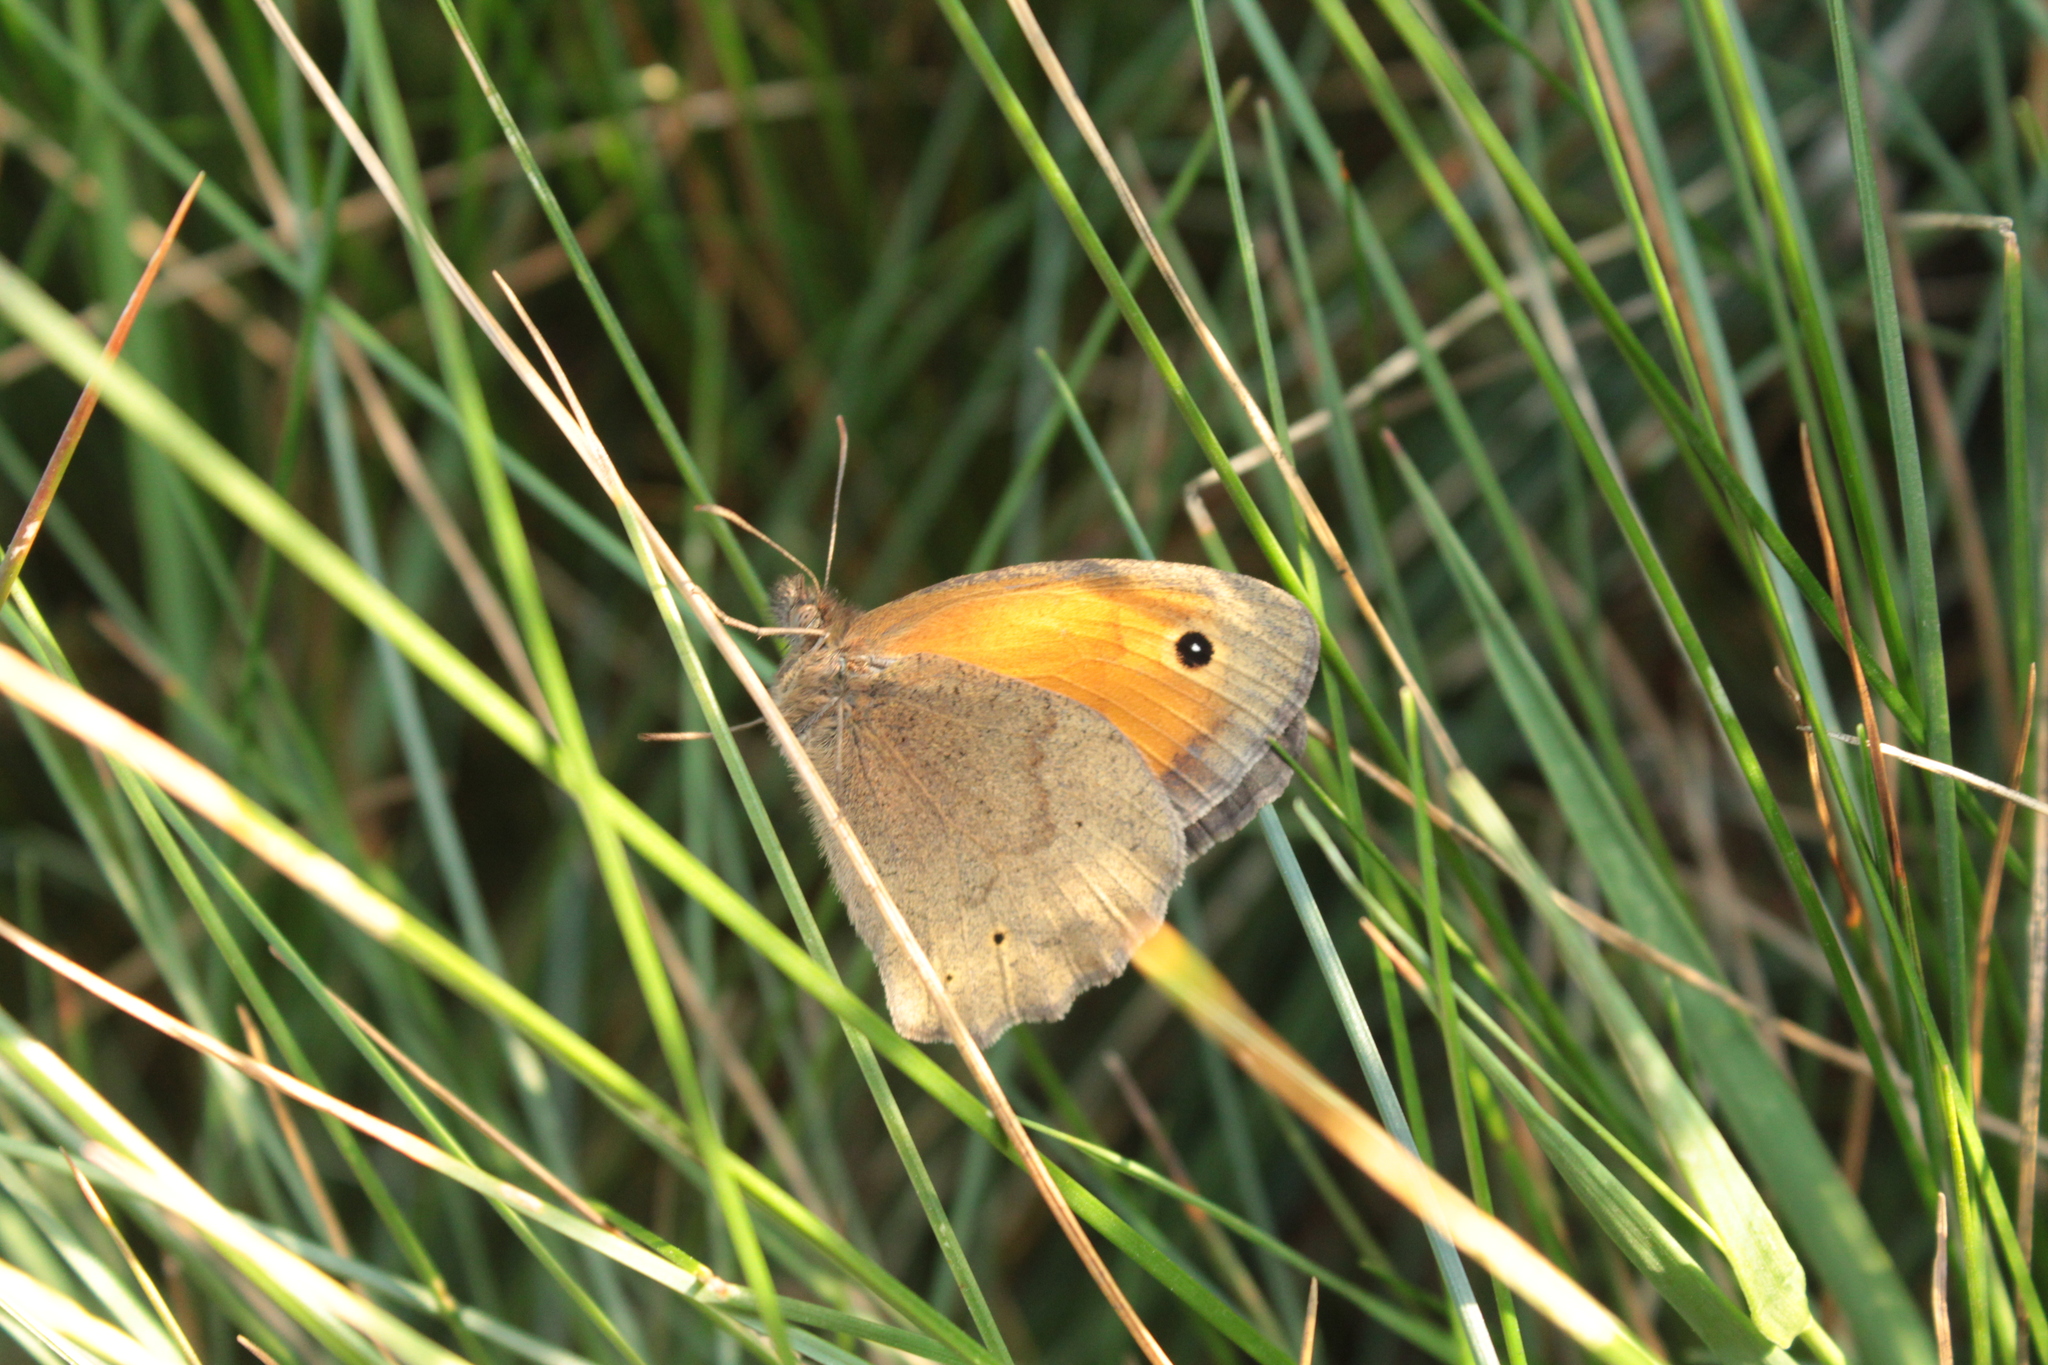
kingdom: Animalia
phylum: Arthropoda
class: Insecta
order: Lepidoptera
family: Nymphalidae
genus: Maniola
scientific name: Maniola jurtina
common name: Meadow brown
